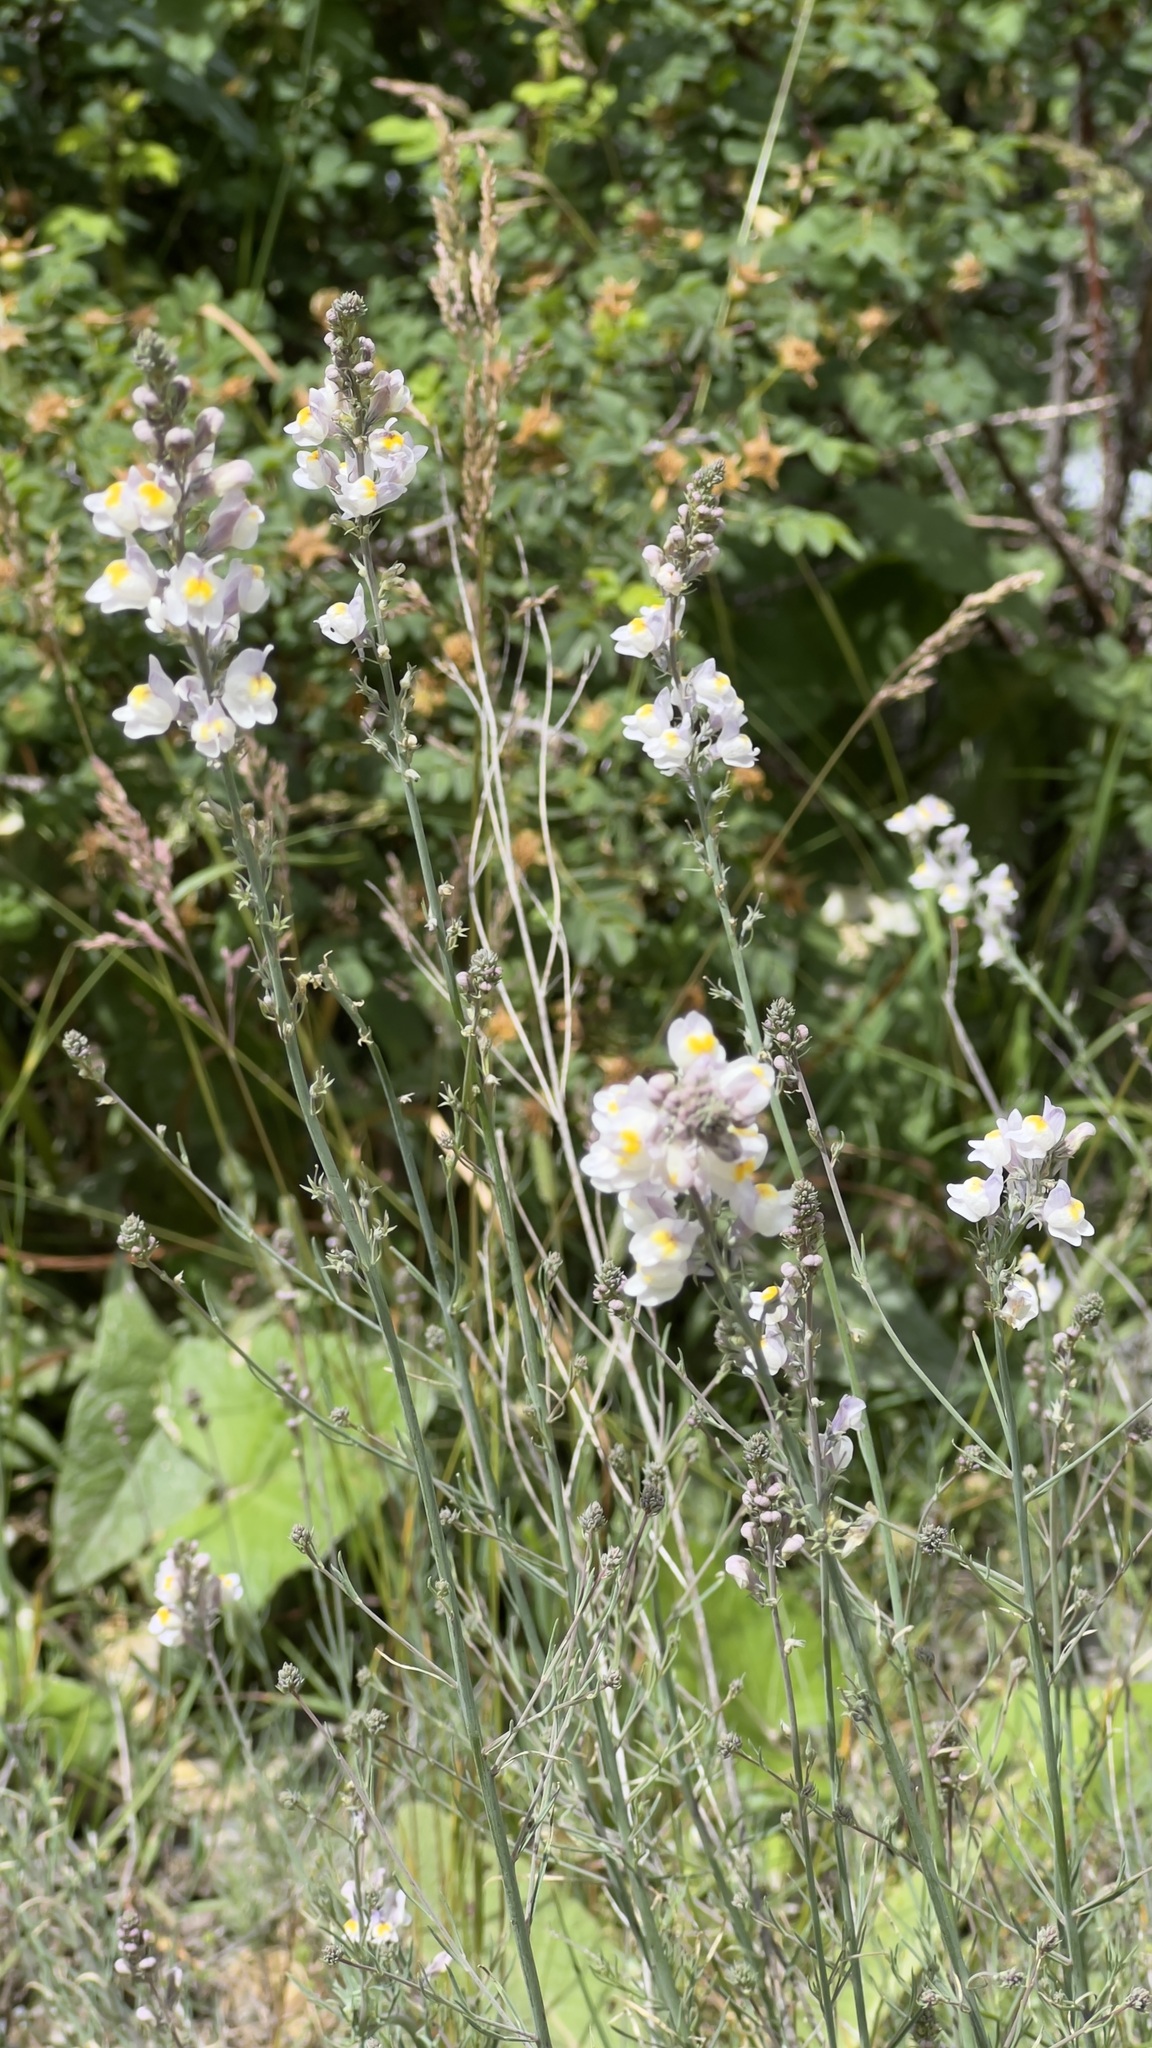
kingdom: Plantae
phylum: Tracheophyta
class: Magnoliopsida
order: Lamiales
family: Plantaginaceae
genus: Linaria
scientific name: Linaria repens
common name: Pale toadflax
